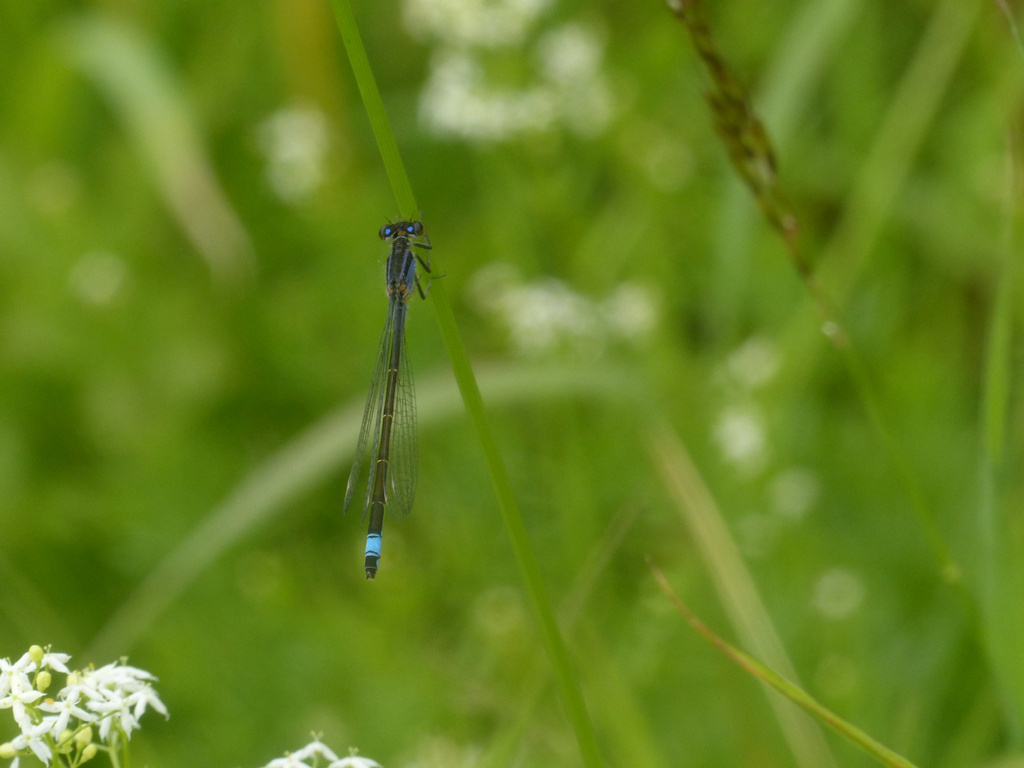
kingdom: Animalia
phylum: Arthropoda
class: Insecta
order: Odonata
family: Coenagrionidae
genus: Ischnura
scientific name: Ischnura elegans
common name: Blue-tailed damselfly
